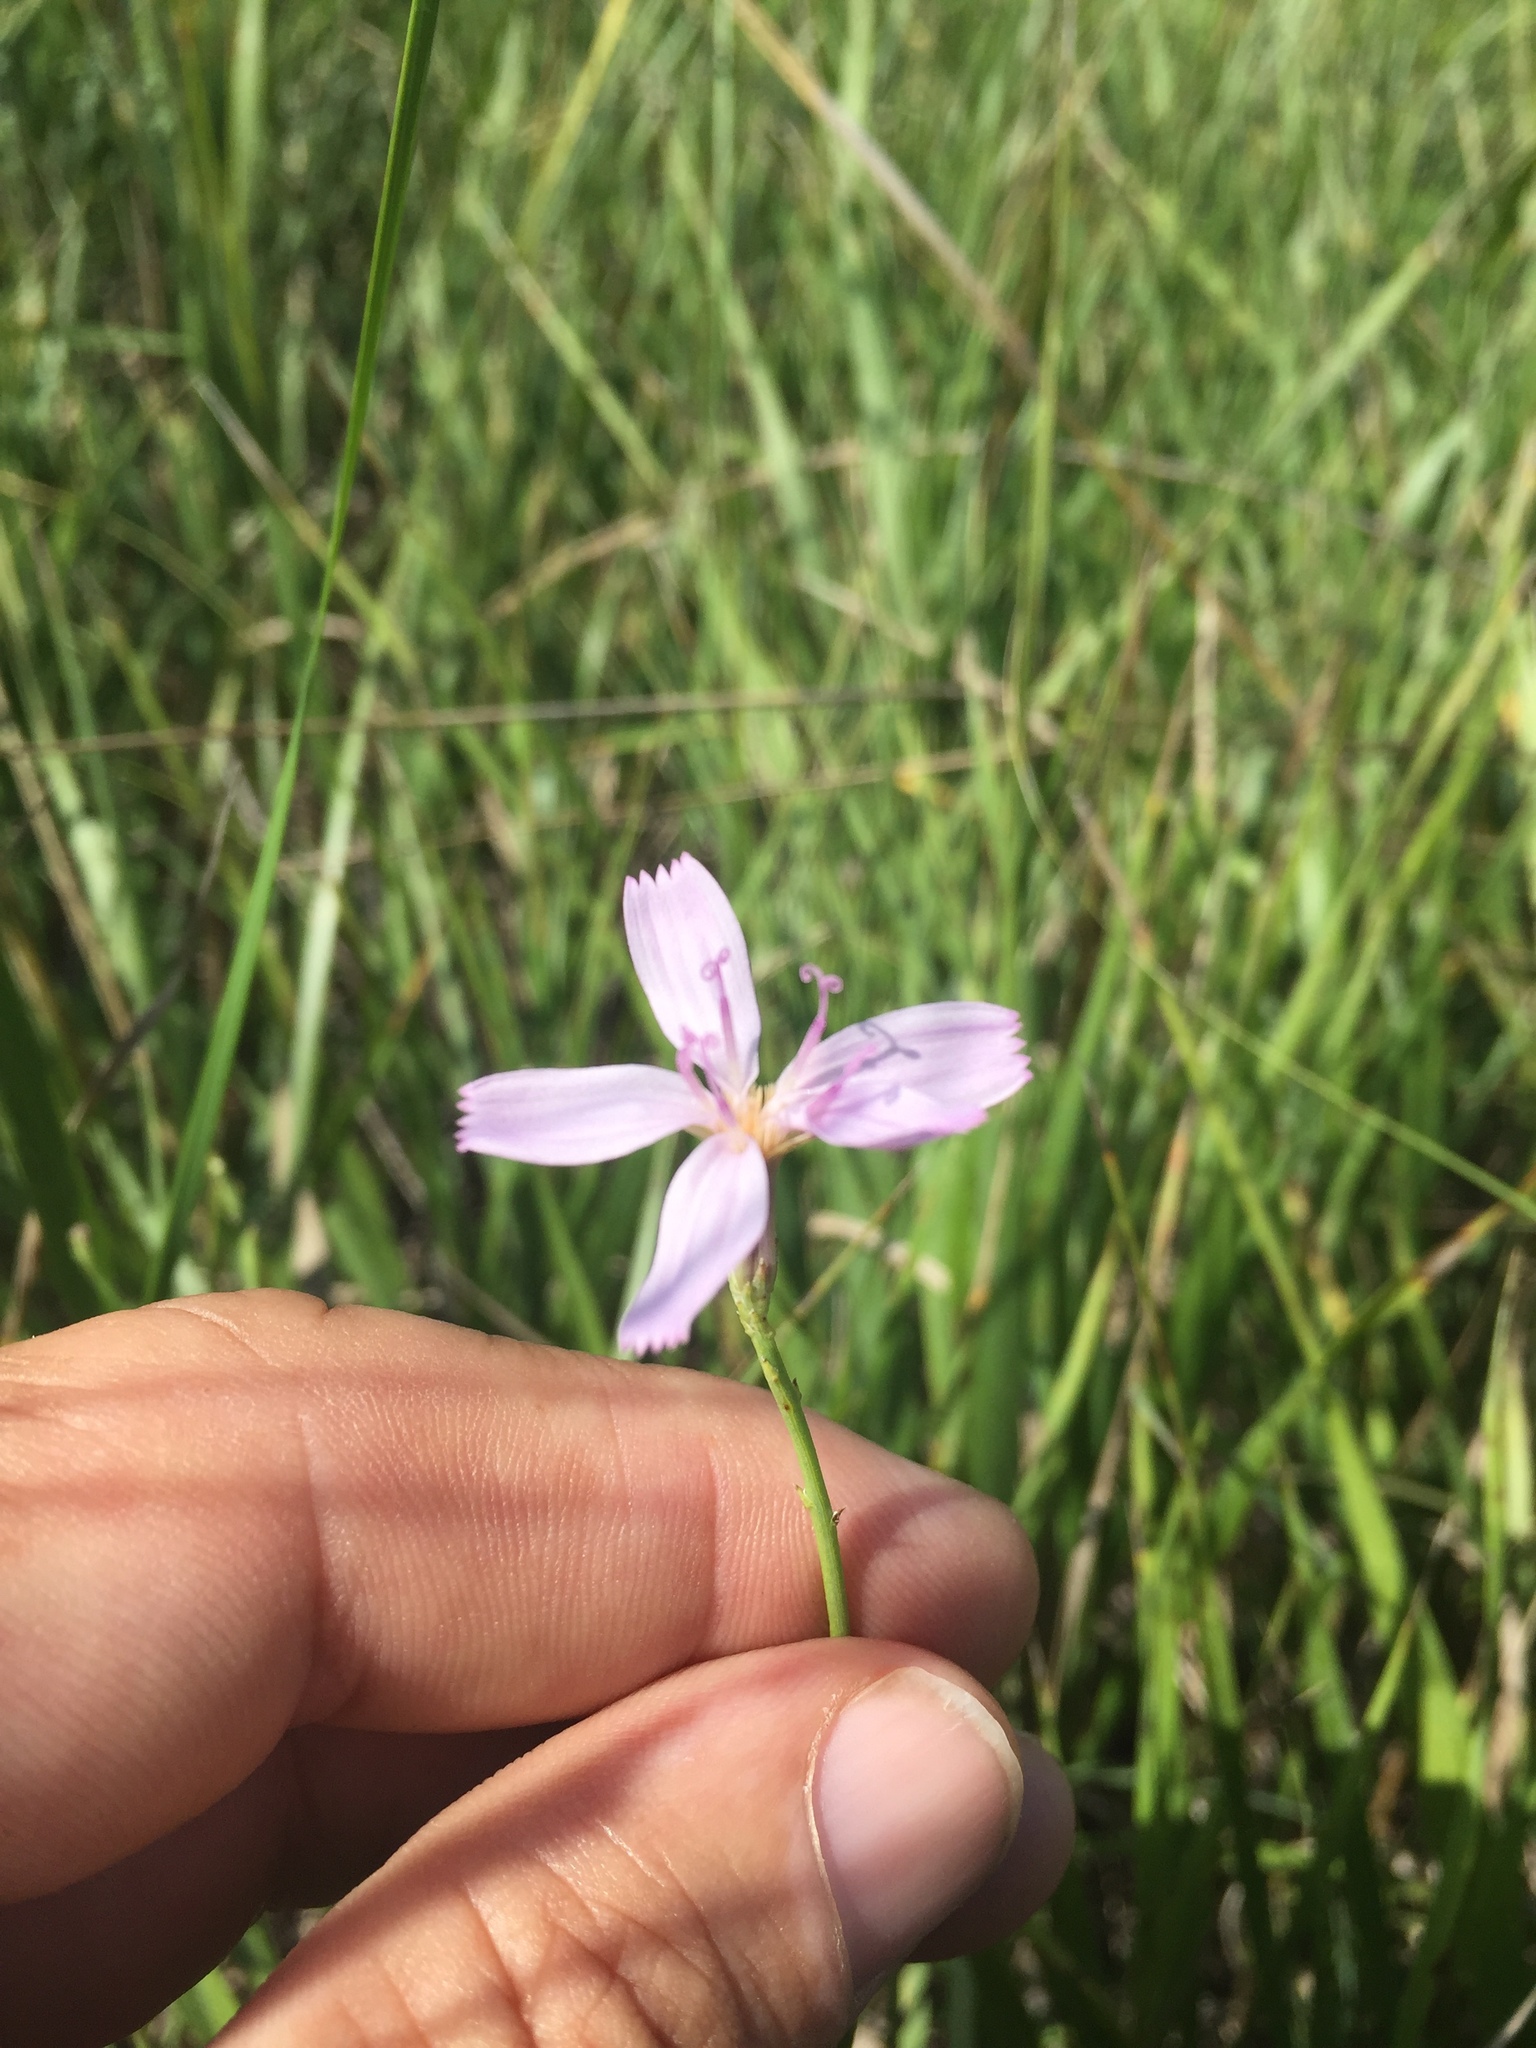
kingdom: Plantae
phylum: Tracheophyta
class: Magnoliopsida
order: Asterales
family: Asteraceae
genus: Lygodesmia
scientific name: Lygodesmia juncea
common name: Common skeletonweed
